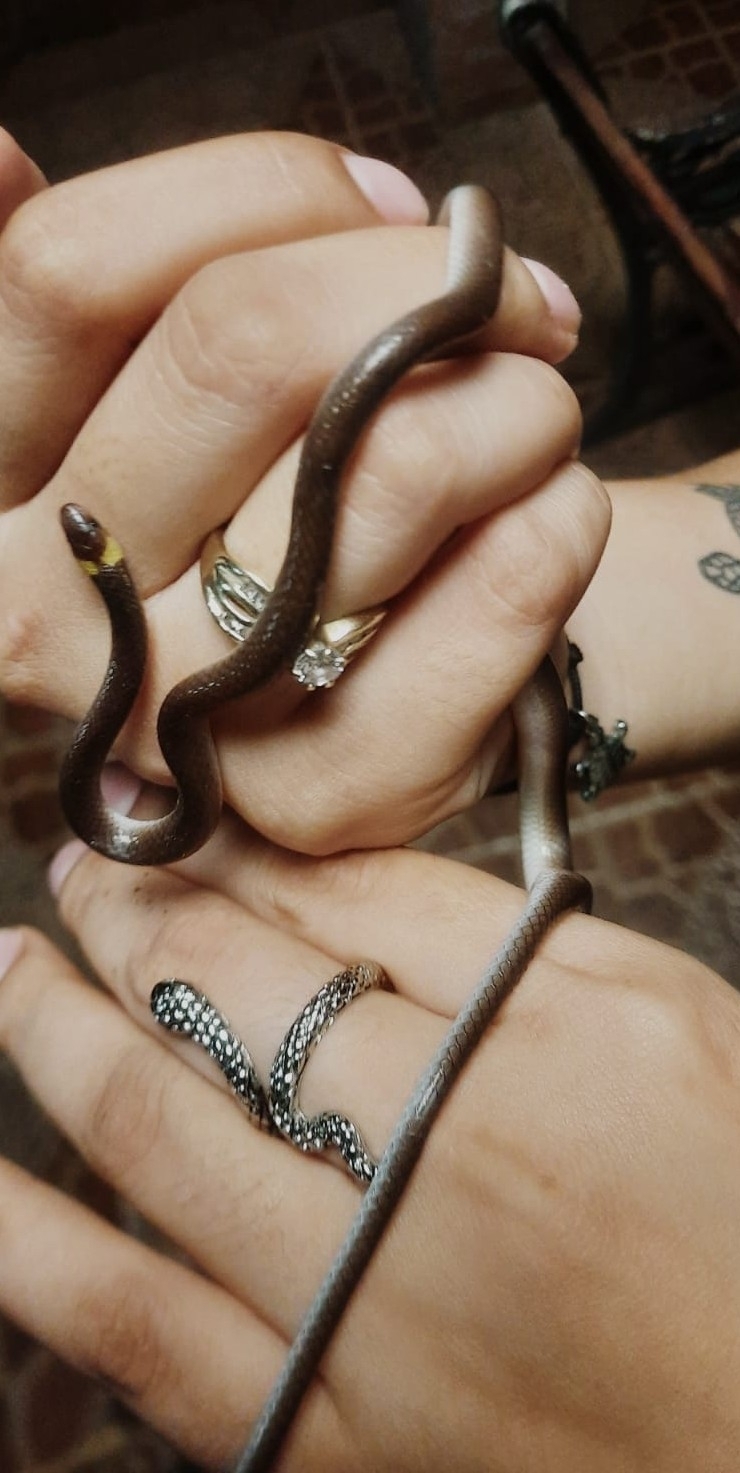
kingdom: Animalia
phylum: Chordata
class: Squamata
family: Colubridae
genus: Enulius
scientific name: Enulius flavitorques
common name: Pacific longtail snake
